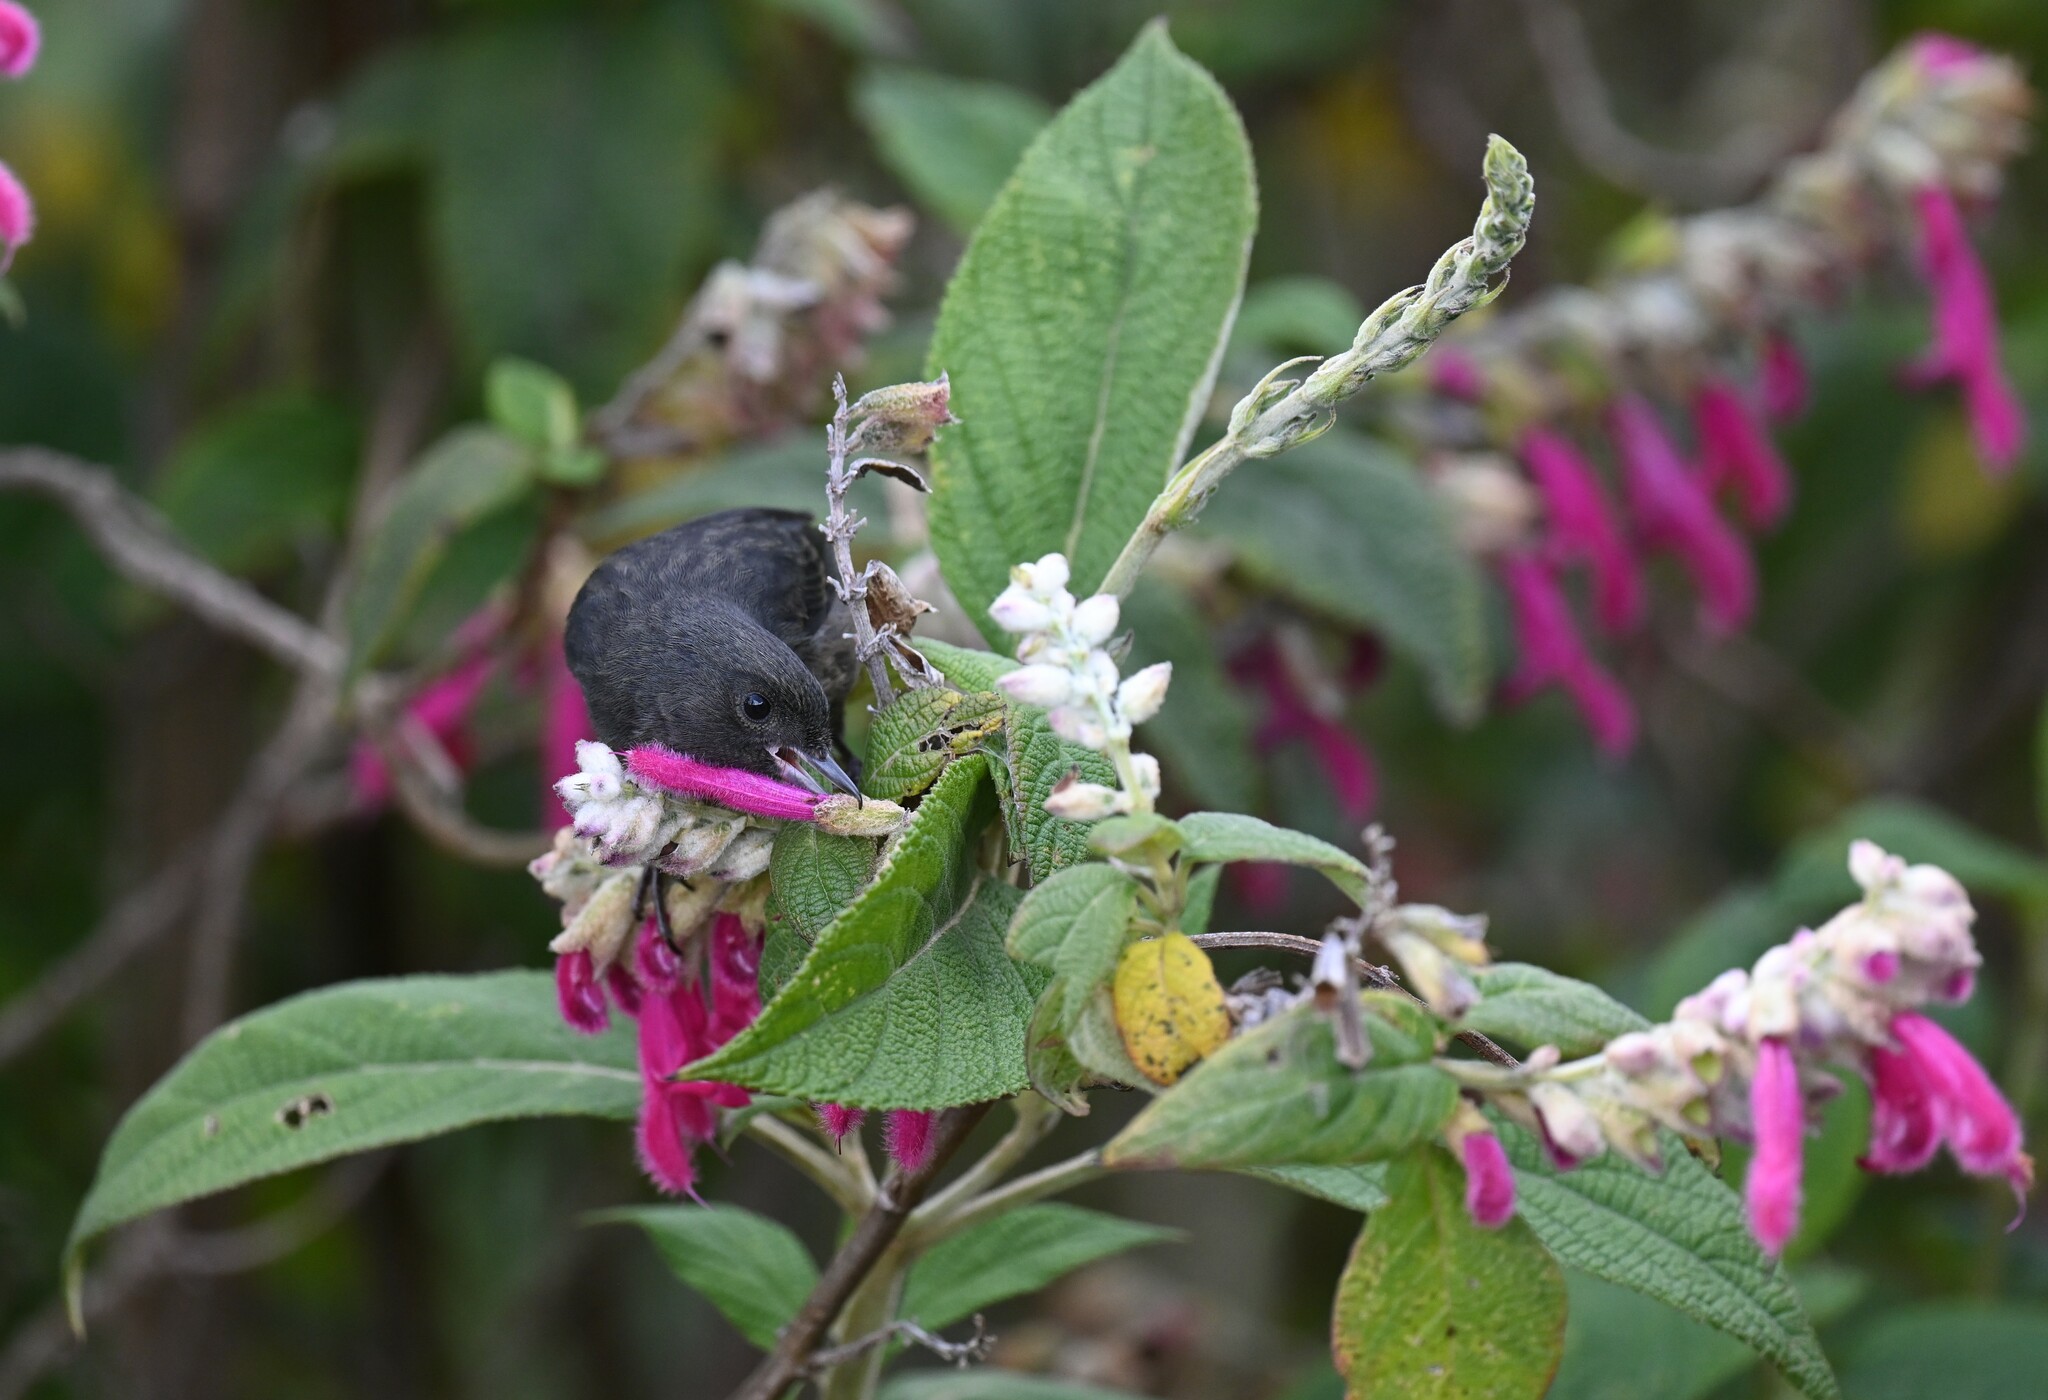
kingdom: Animalia
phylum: Chordata
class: Aves
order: Passeriformes
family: Thraupidae
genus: Diglossa
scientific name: Diglossa humeralis
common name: Black flowerpiercer
